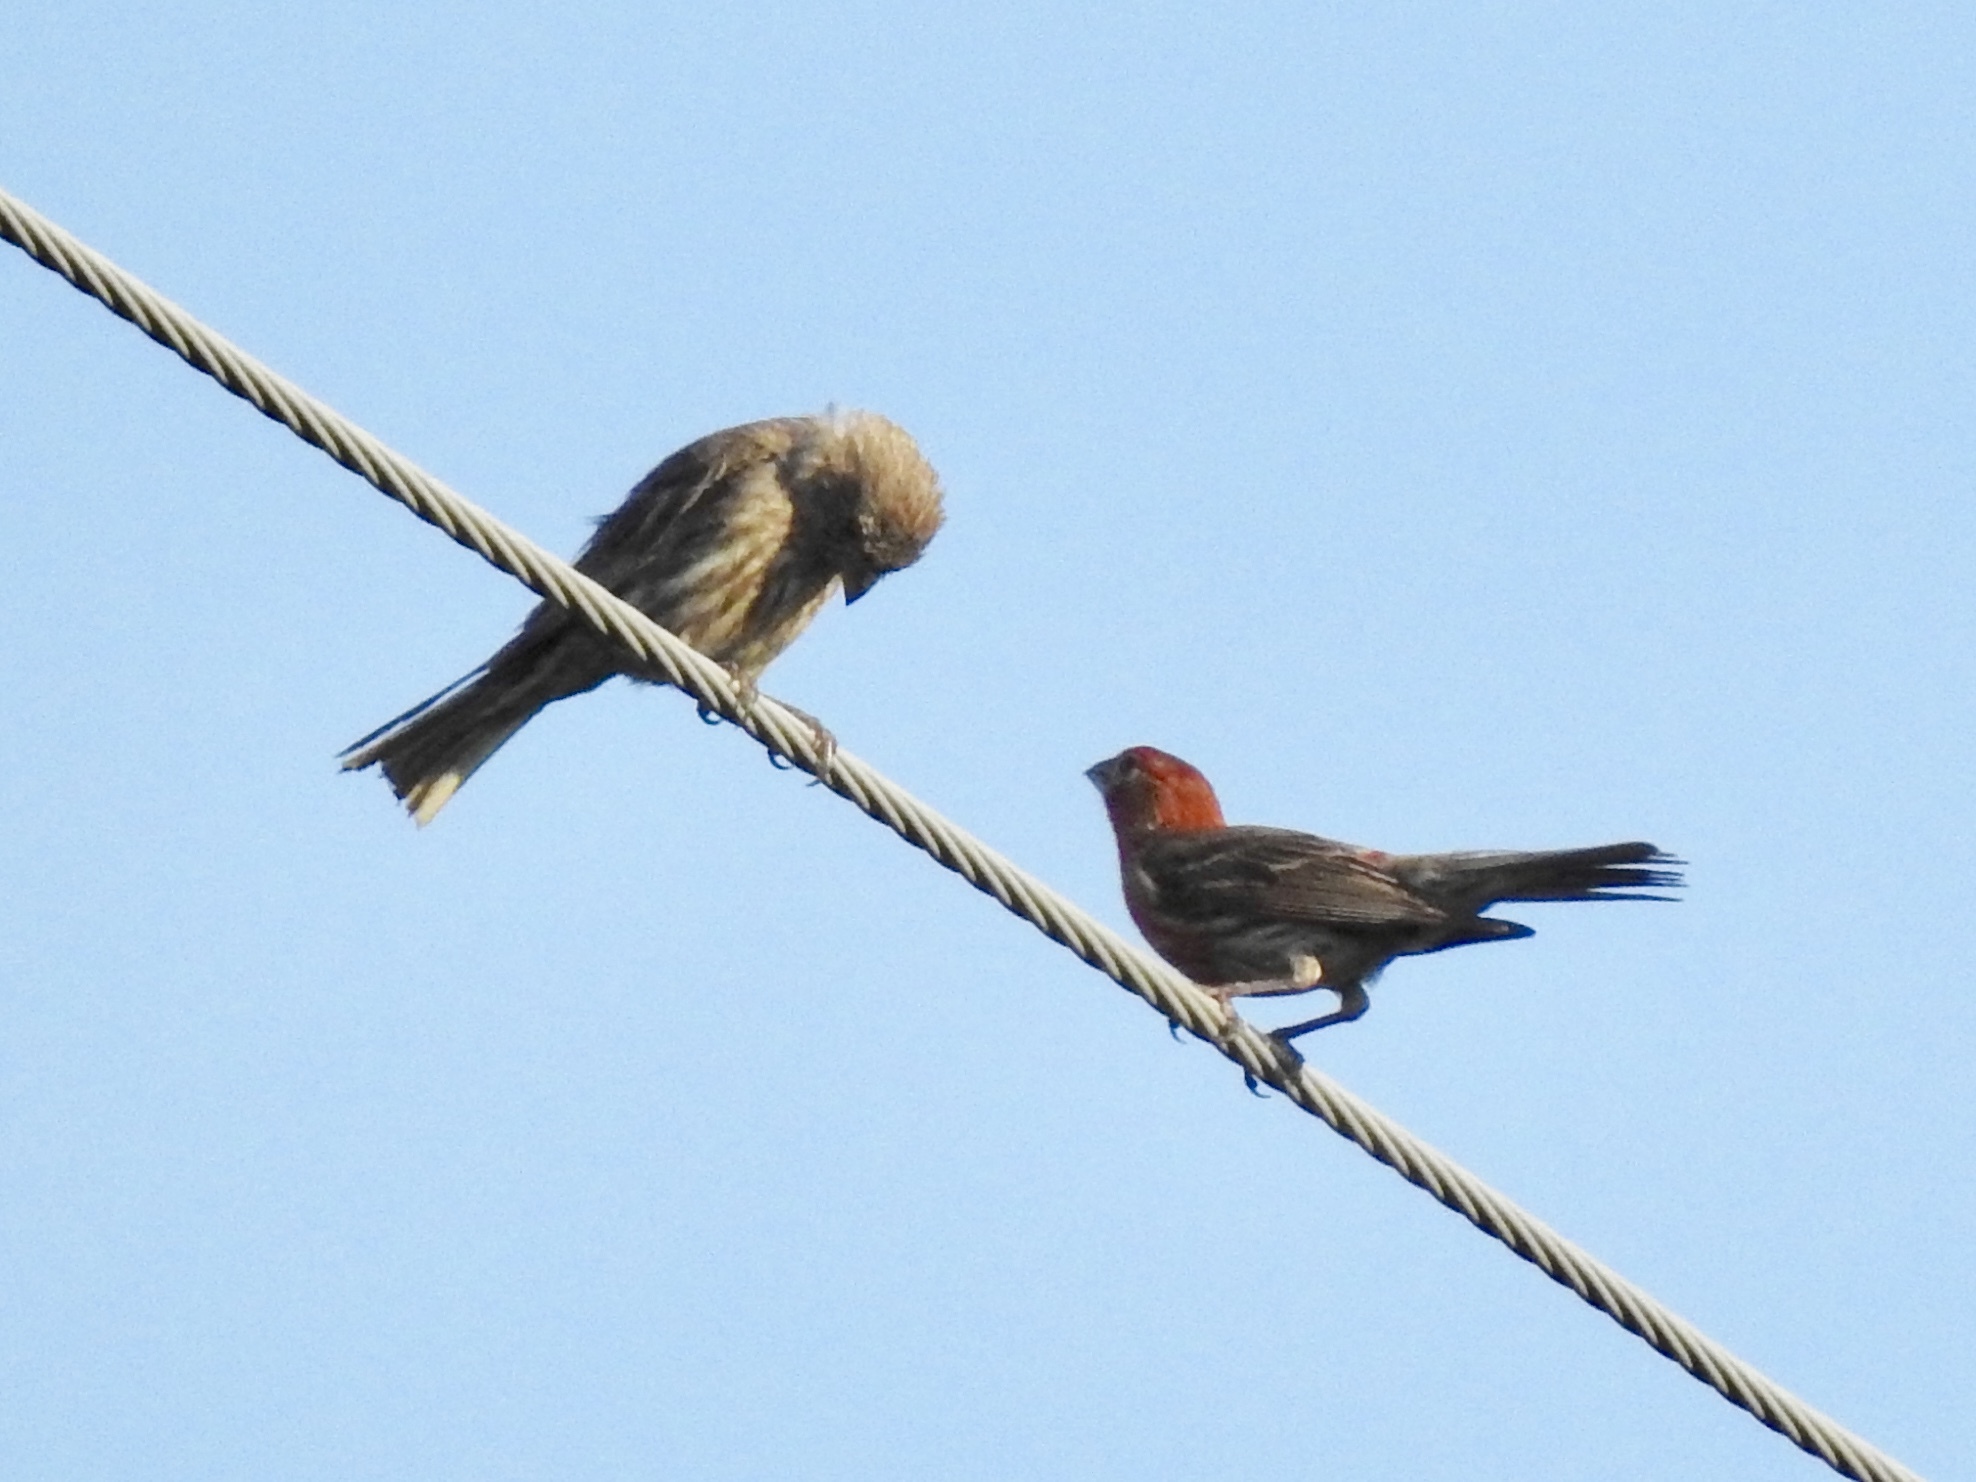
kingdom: Animalia
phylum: Chordata
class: Aves
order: Passeriformes
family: Fringillidae
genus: Haemorhous
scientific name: Haemorhous mexicanus
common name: House finch
